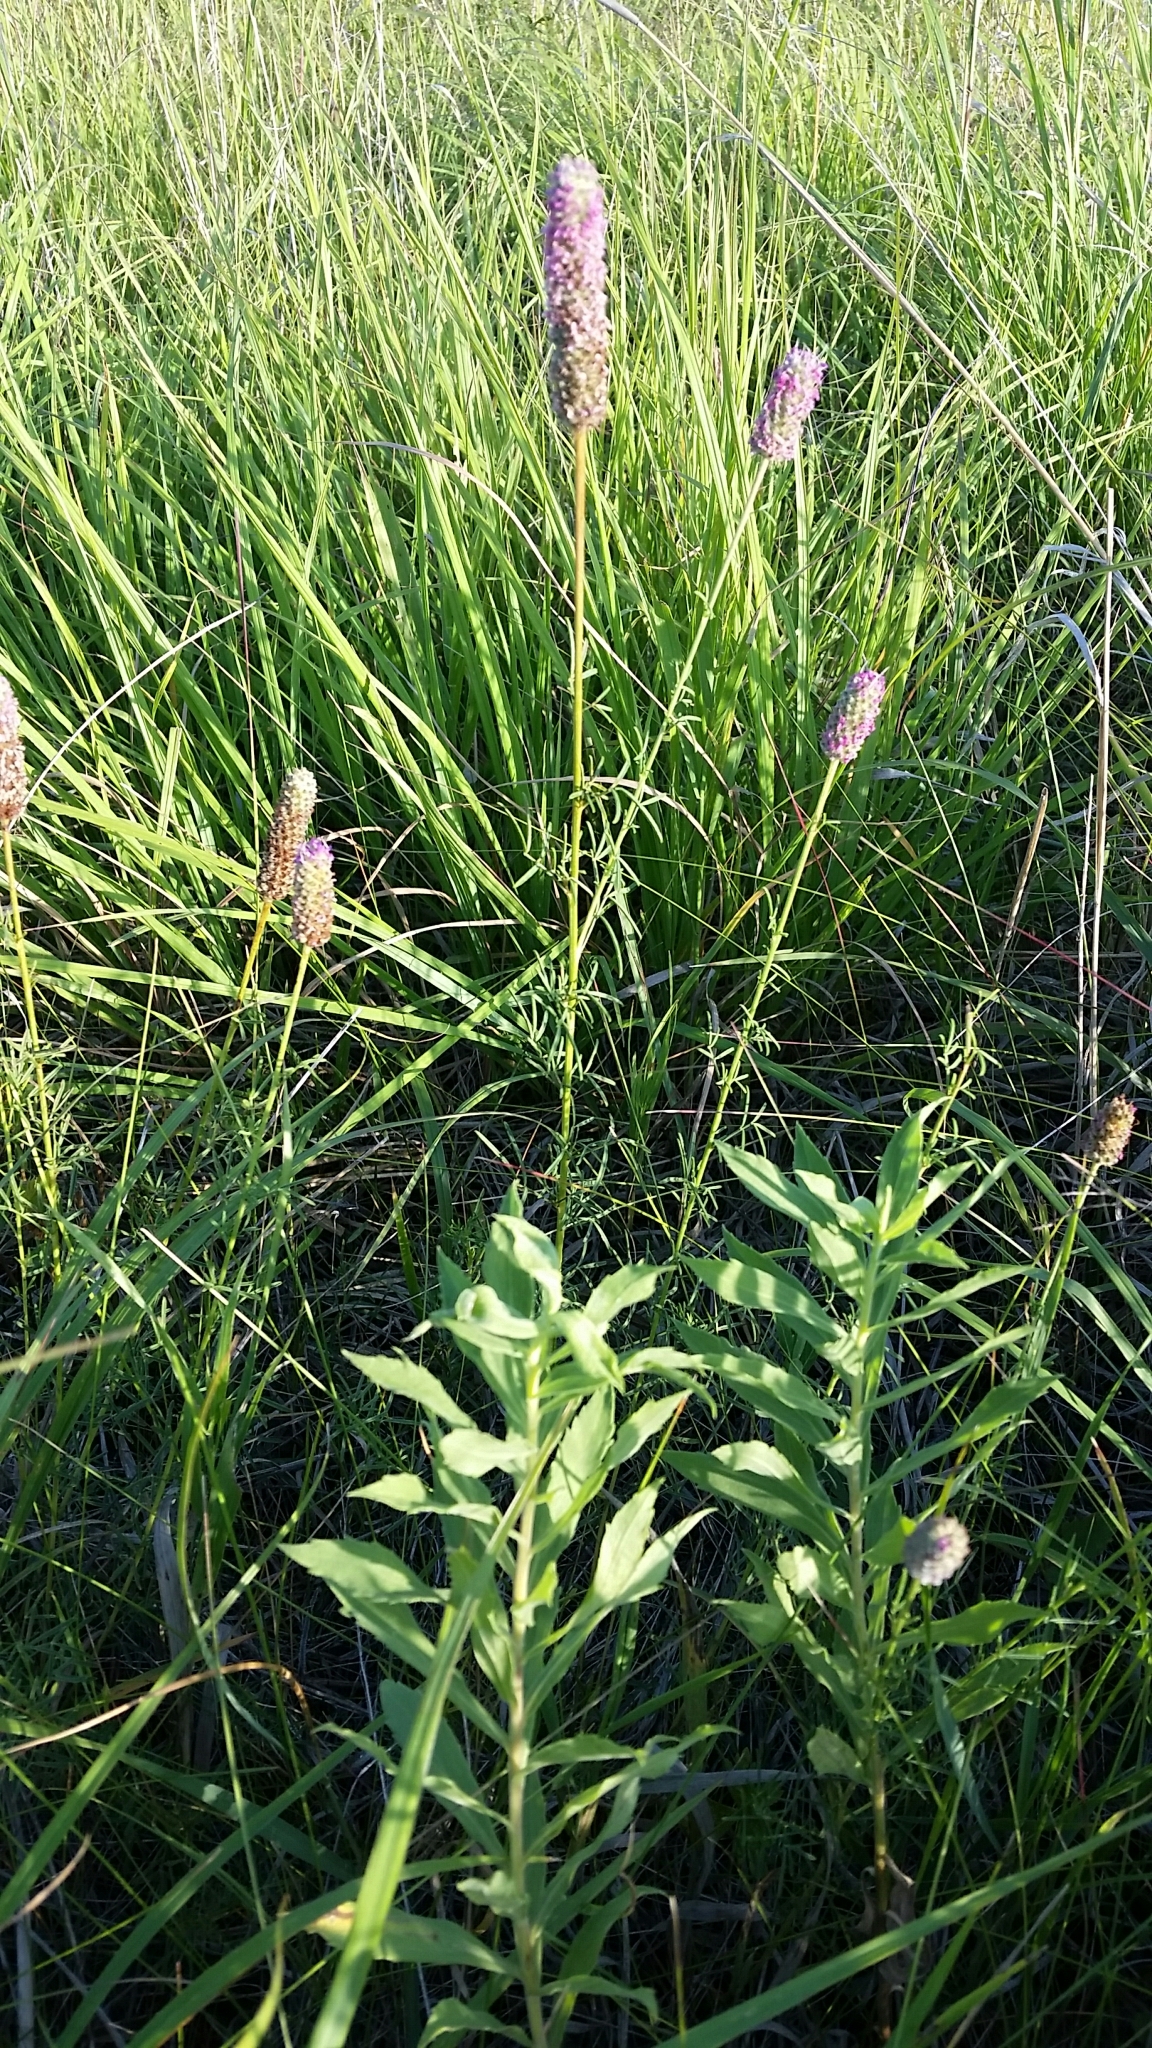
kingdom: Plantae
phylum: Tracheophyta
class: Magnoliopsida
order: Fabales
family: Fabaceae
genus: Dalea
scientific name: Dalea purpurea
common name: Purple prairie-clover
